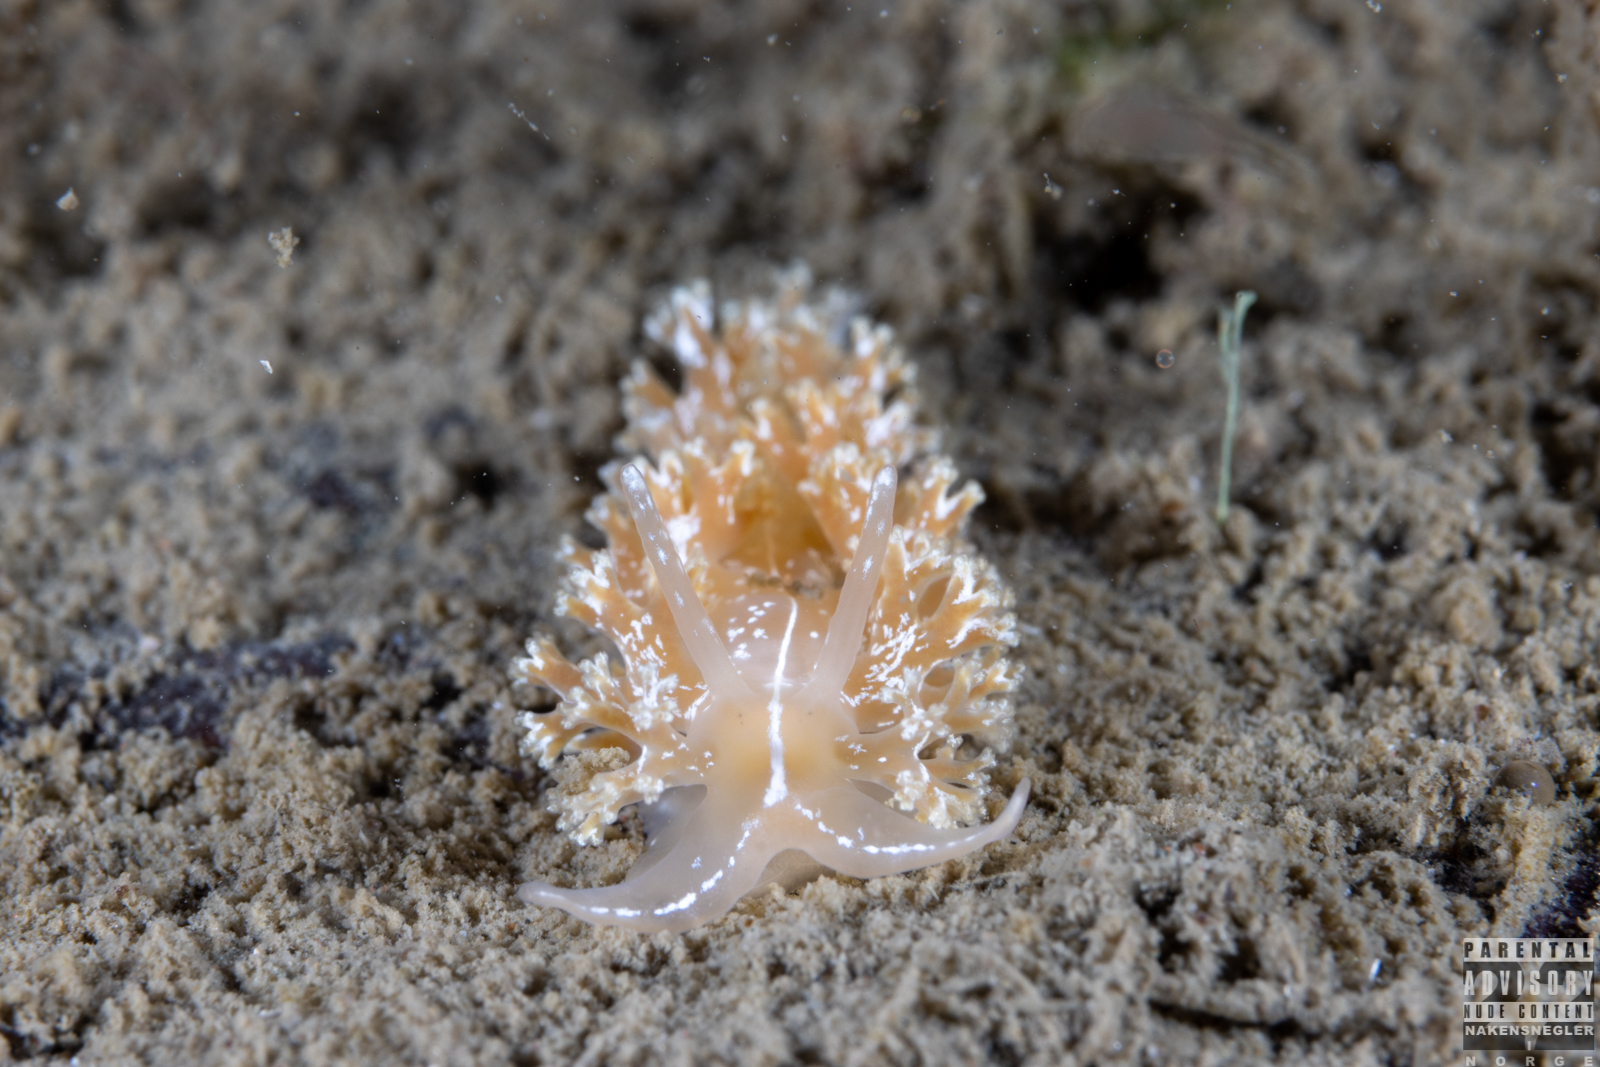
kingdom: Animalia
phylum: Mollusca
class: Gastropoda
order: Nudibranchia
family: Heroidae
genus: Hero
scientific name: Hero formosa
